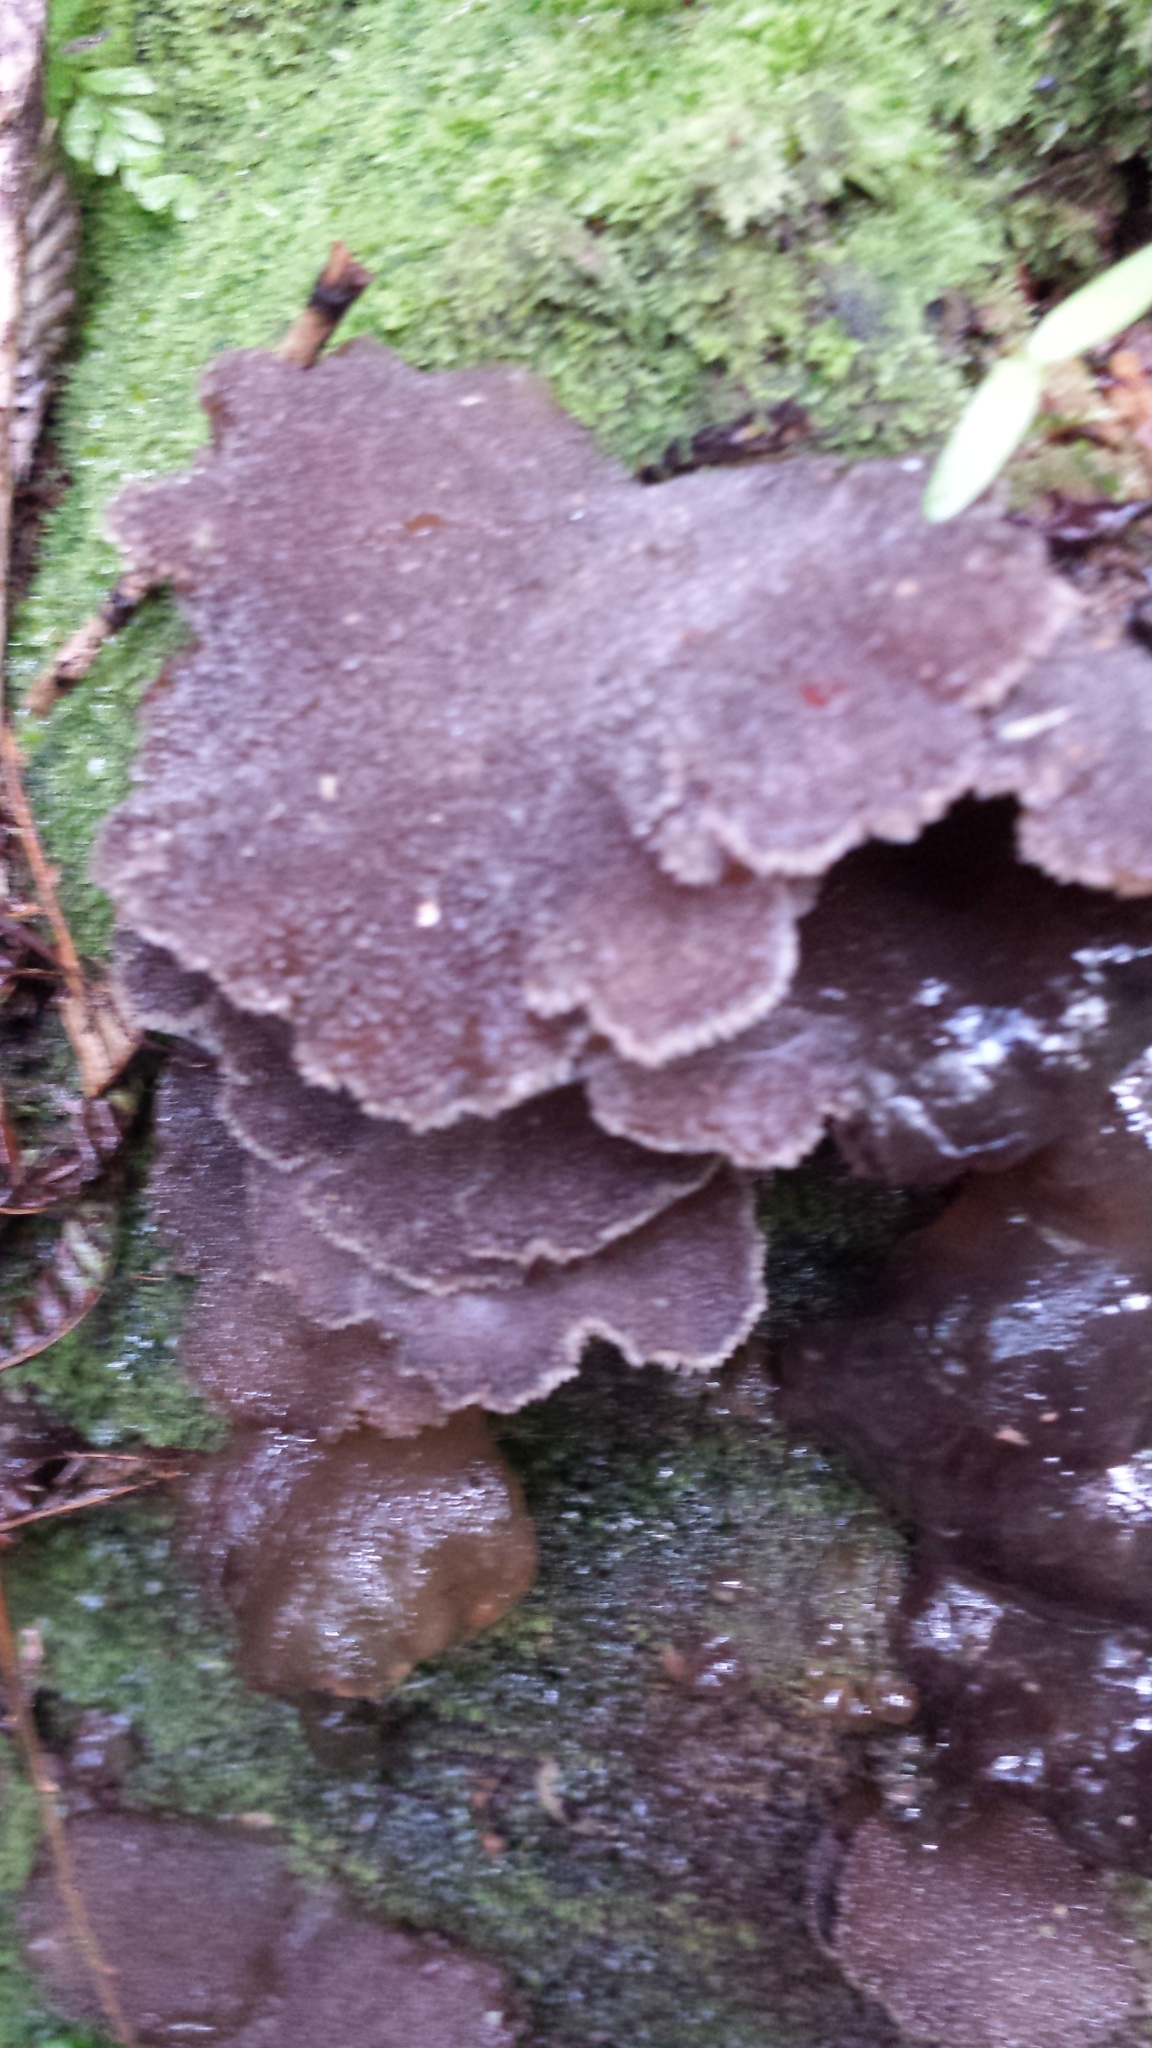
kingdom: Fungi
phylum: Basidiomycota
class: Agaricomycetes
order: Auriculariales
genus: Pseudohydnum
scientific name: Pseudohydnum orbiculare
